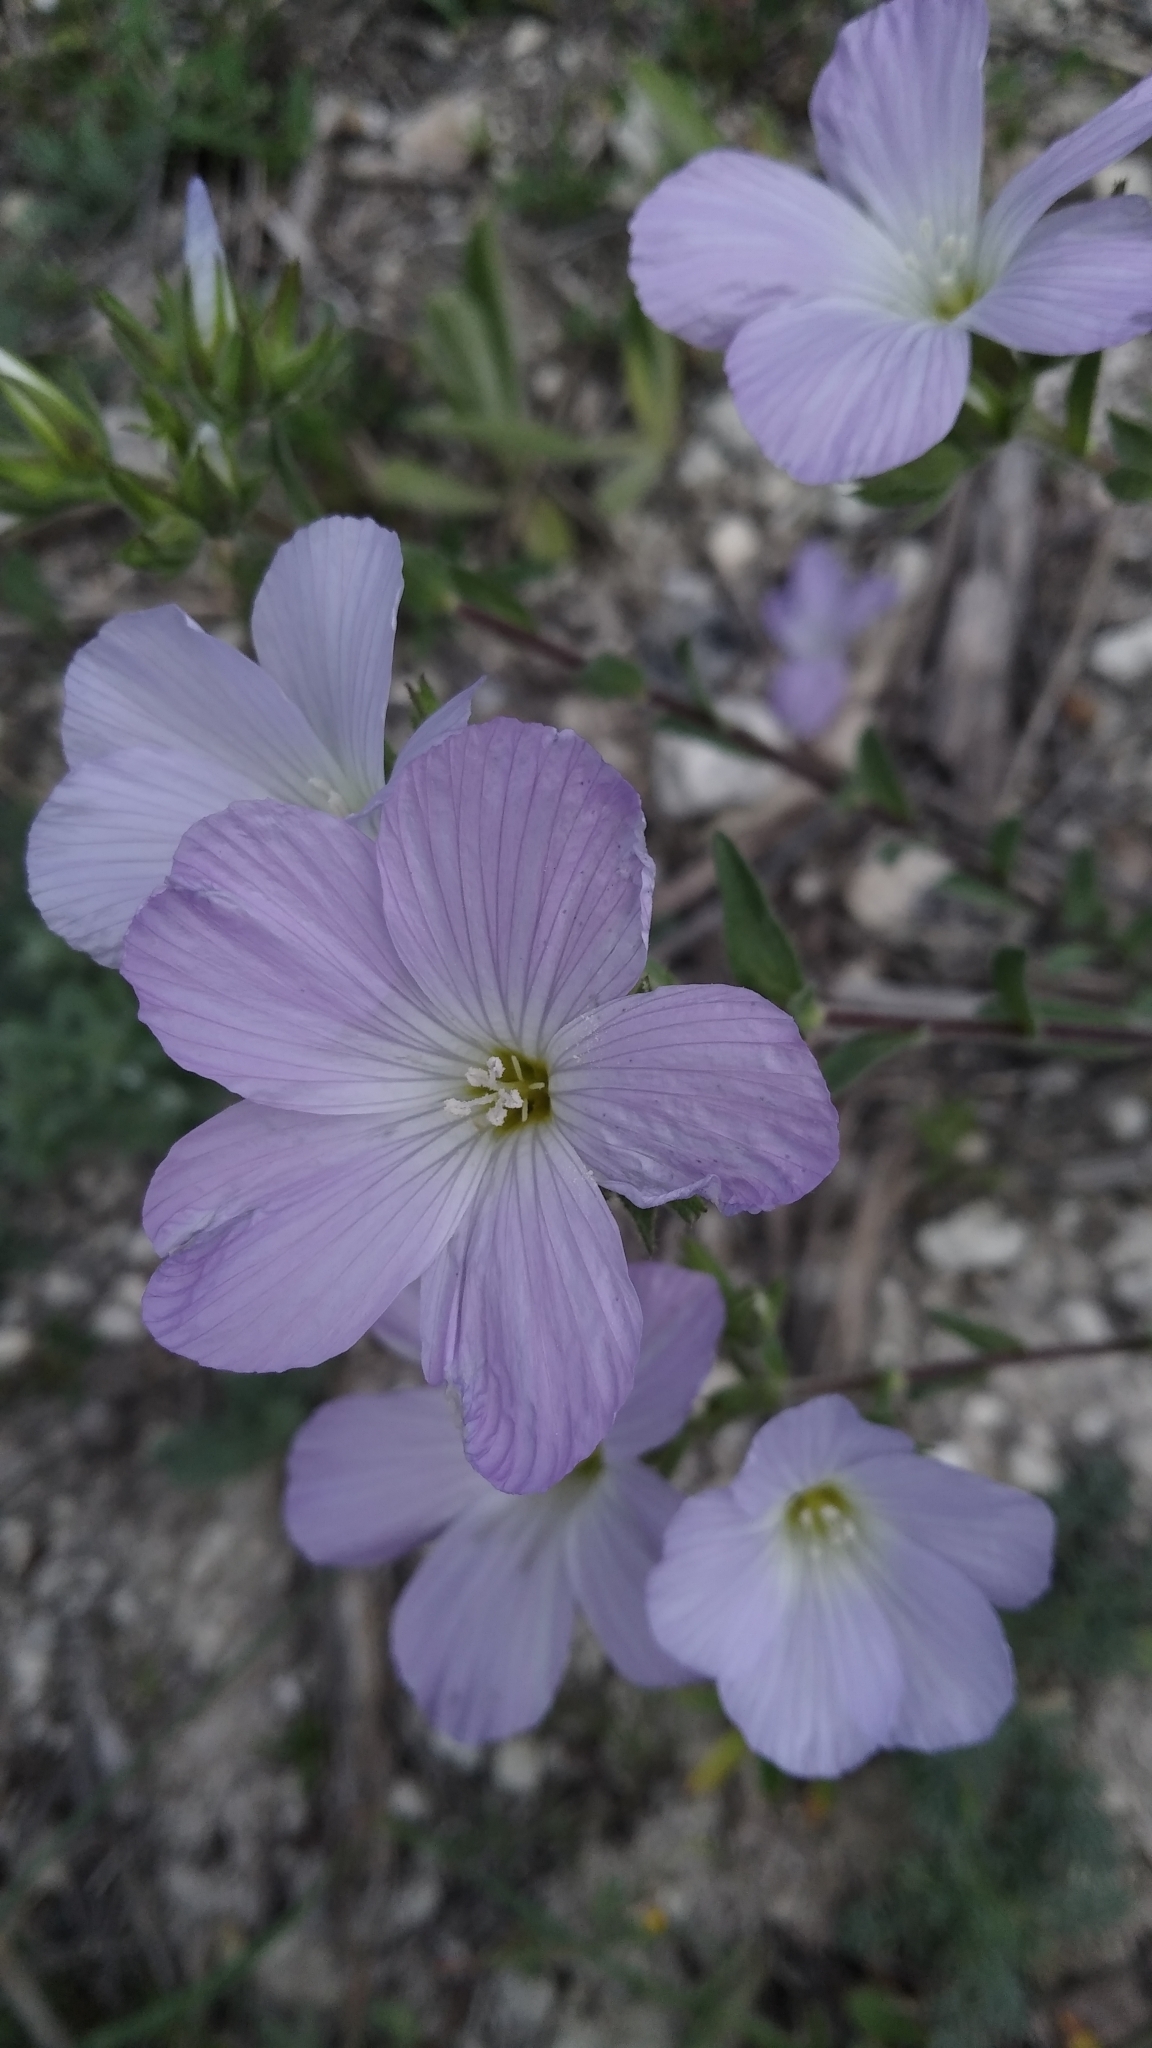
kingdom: Plantae
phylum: Tracheophyta
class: Magnoliopsida
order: Malpighiales
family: Linaceae
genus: Linum
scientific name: Linum hirsutum
